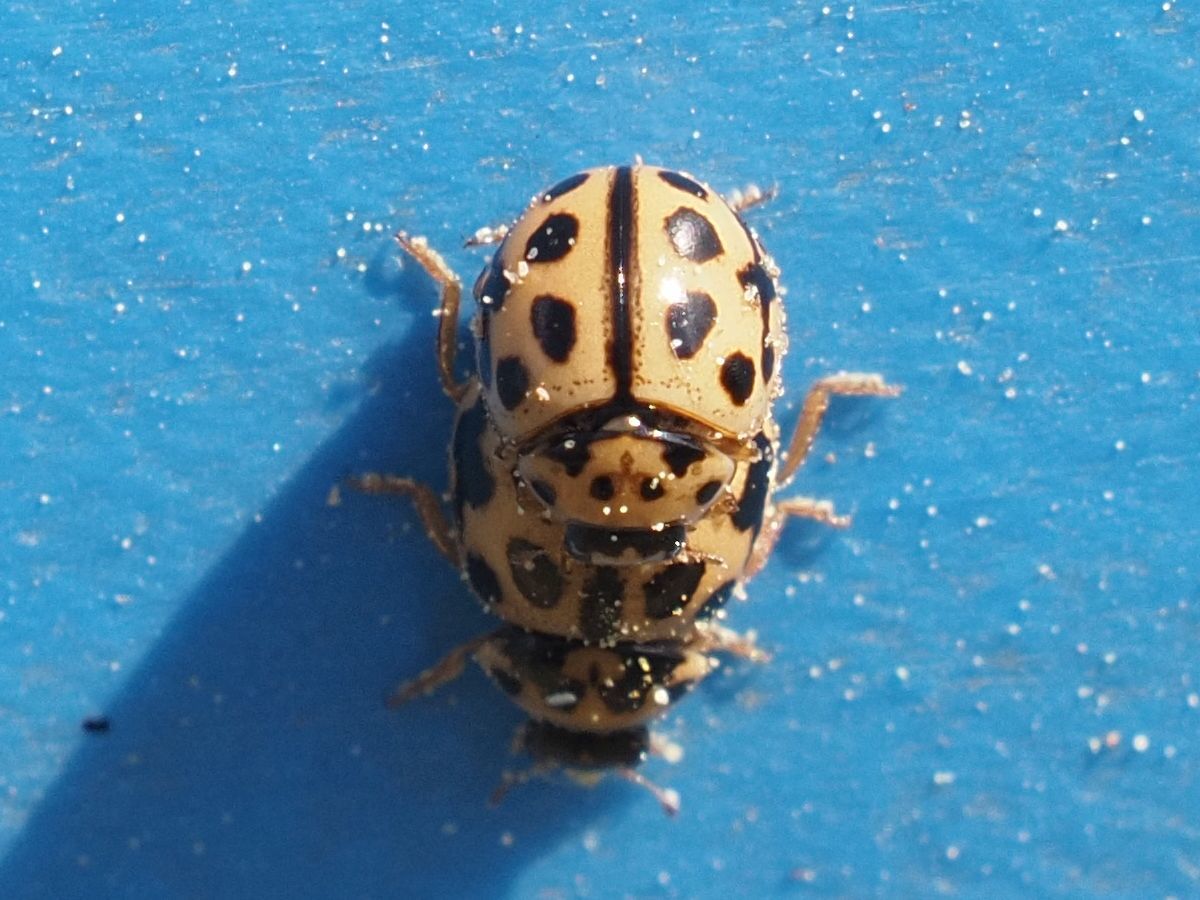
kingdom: Animalia
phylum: Arthropoda
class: Insecta
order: Coleoptera
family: Coccinellidae
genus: Tytthaspis
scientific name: Tytthaspis sedecimpunctata
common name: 16-spot ladybird
